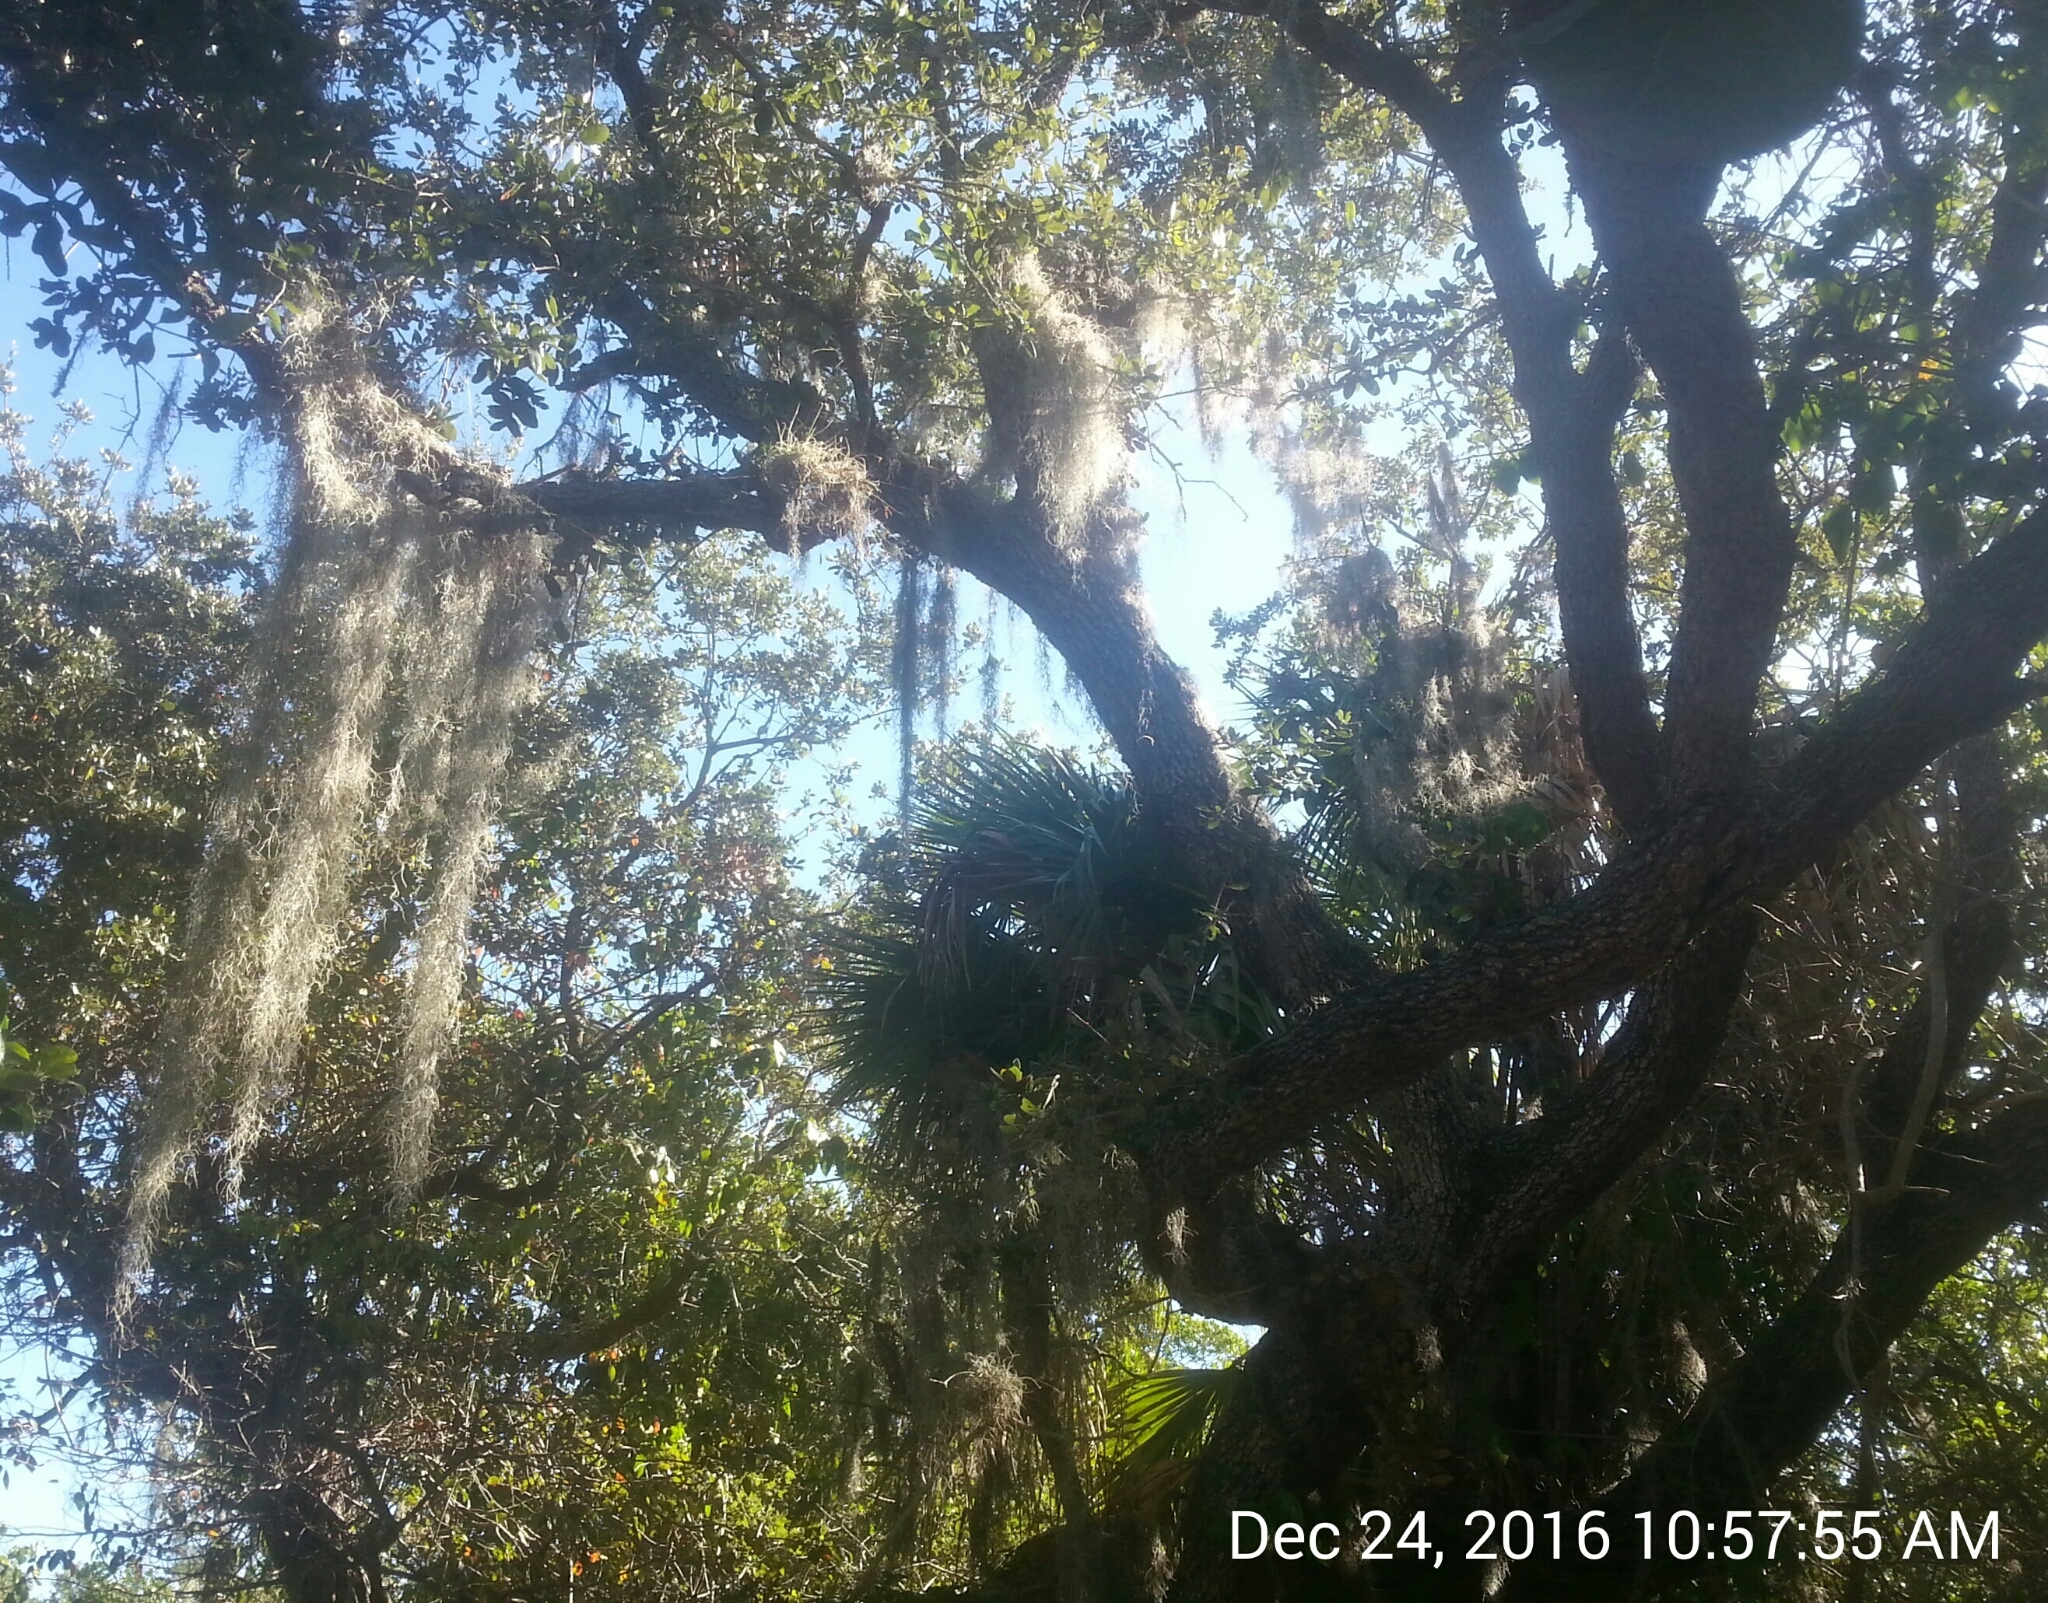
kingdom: Plantae
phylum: Tracheophyta
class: Liliopsida
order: Poales
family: Bromeliaceae
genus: Tillandsia
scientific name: Tillandsia usneoides
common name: Spanish moss
